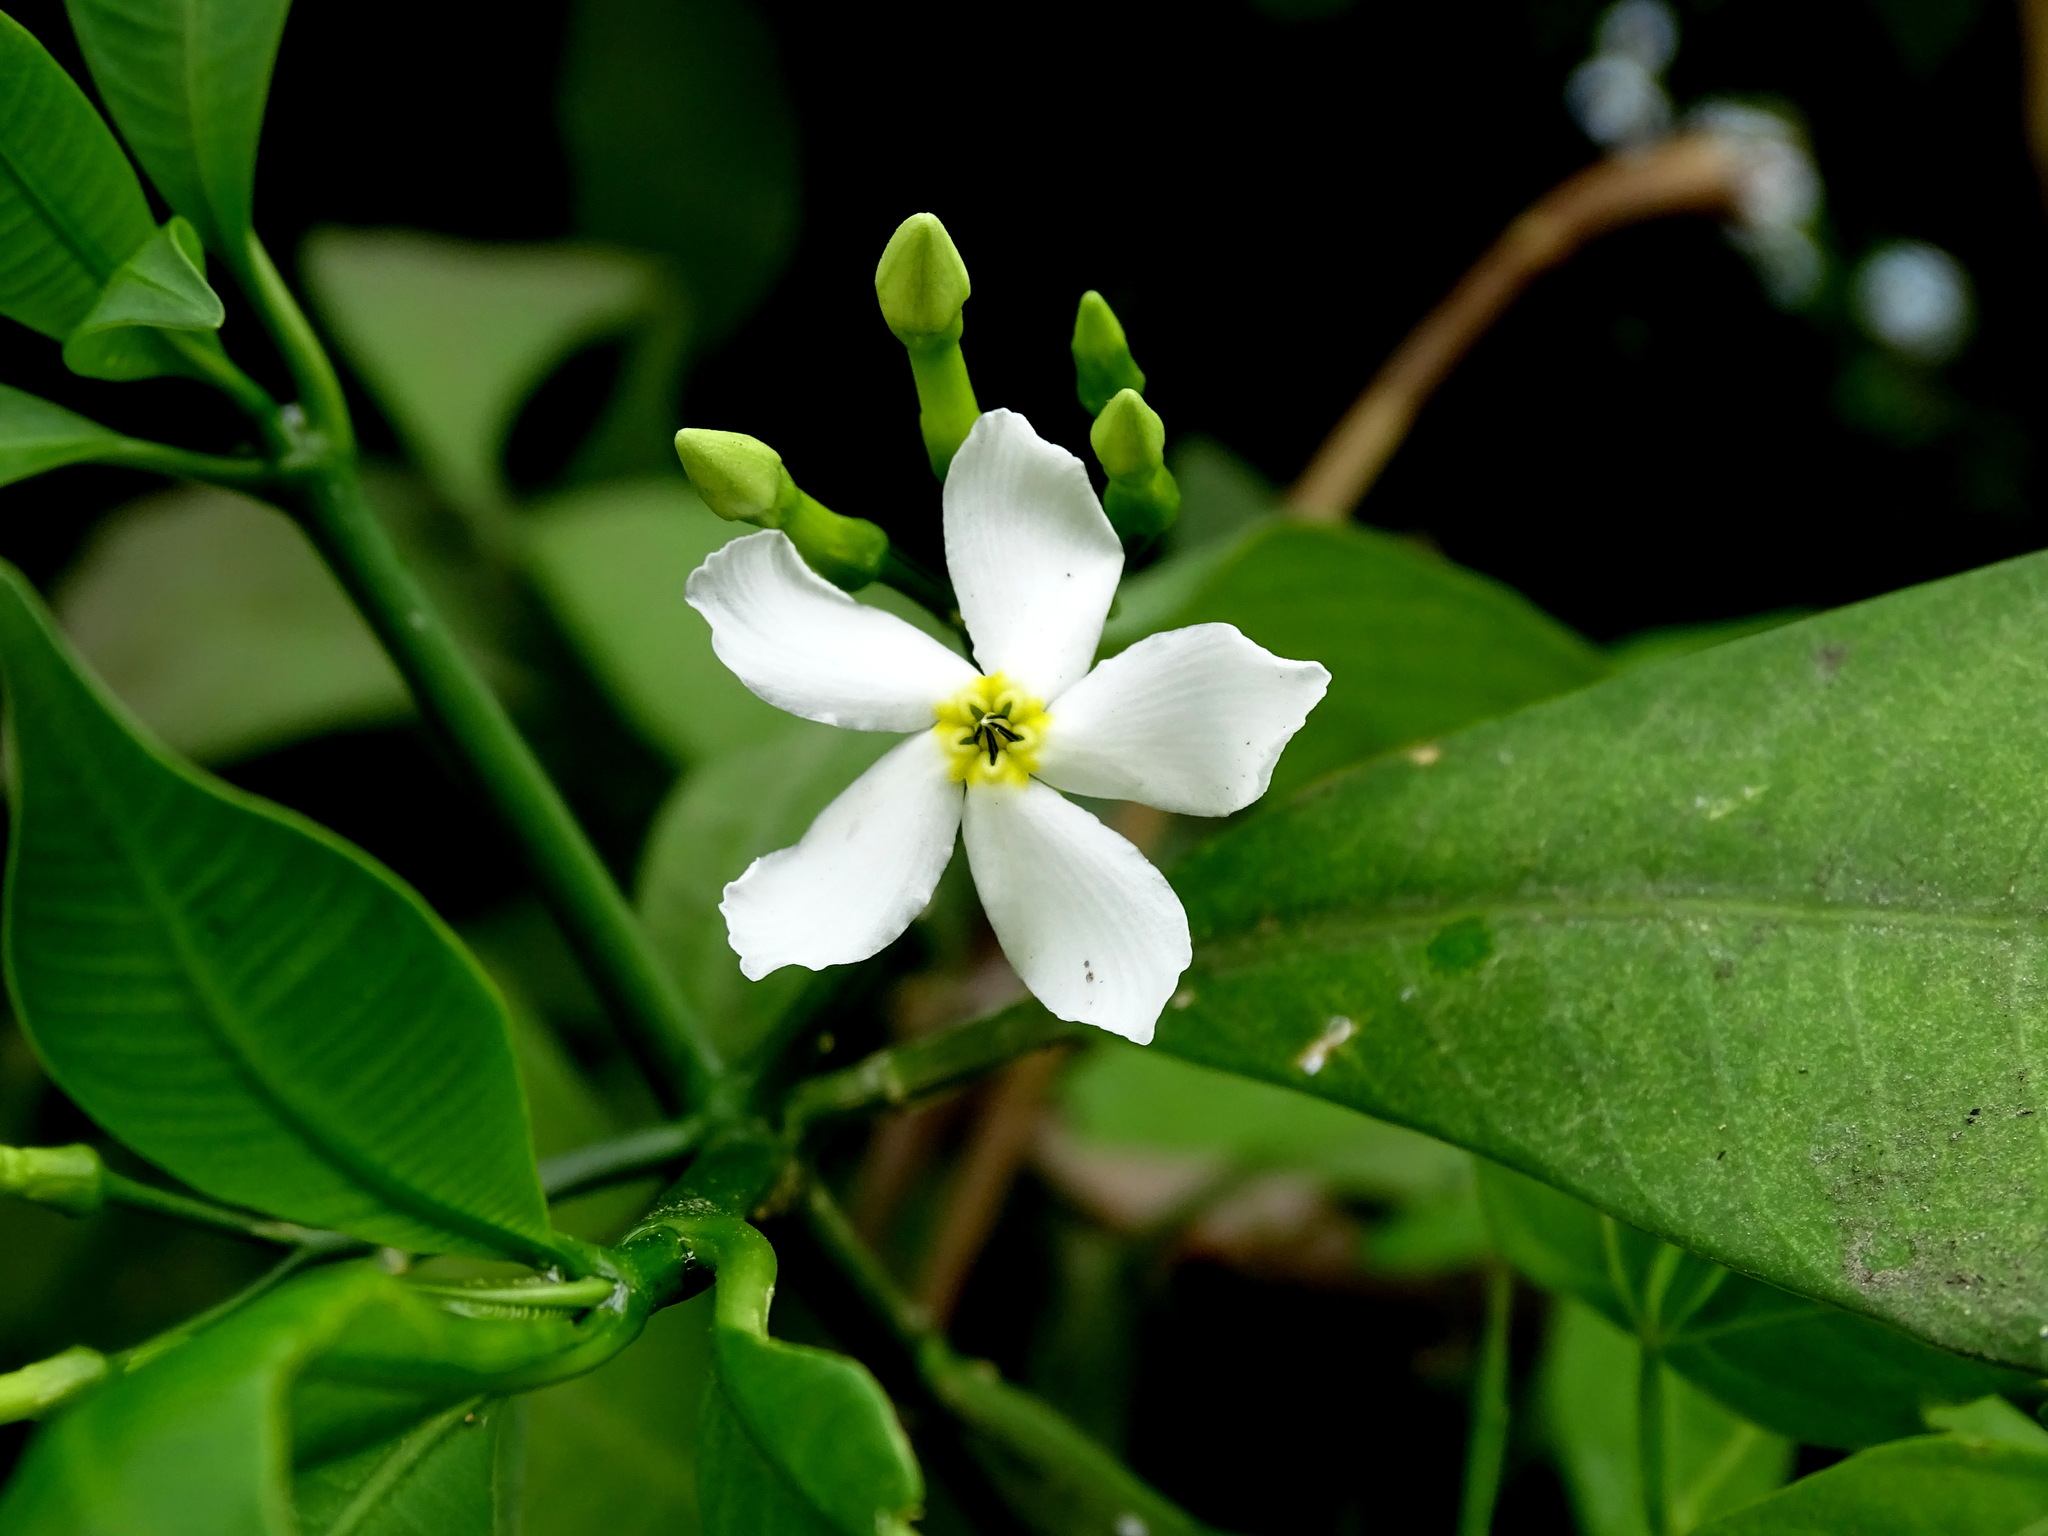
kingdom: Plantae
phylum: Tracheophyta
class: Magnoliopsida
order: Gentianales
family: Apocynaceae
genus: Tabernaemontana
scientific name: Tabernaemontana amygdalifolia
